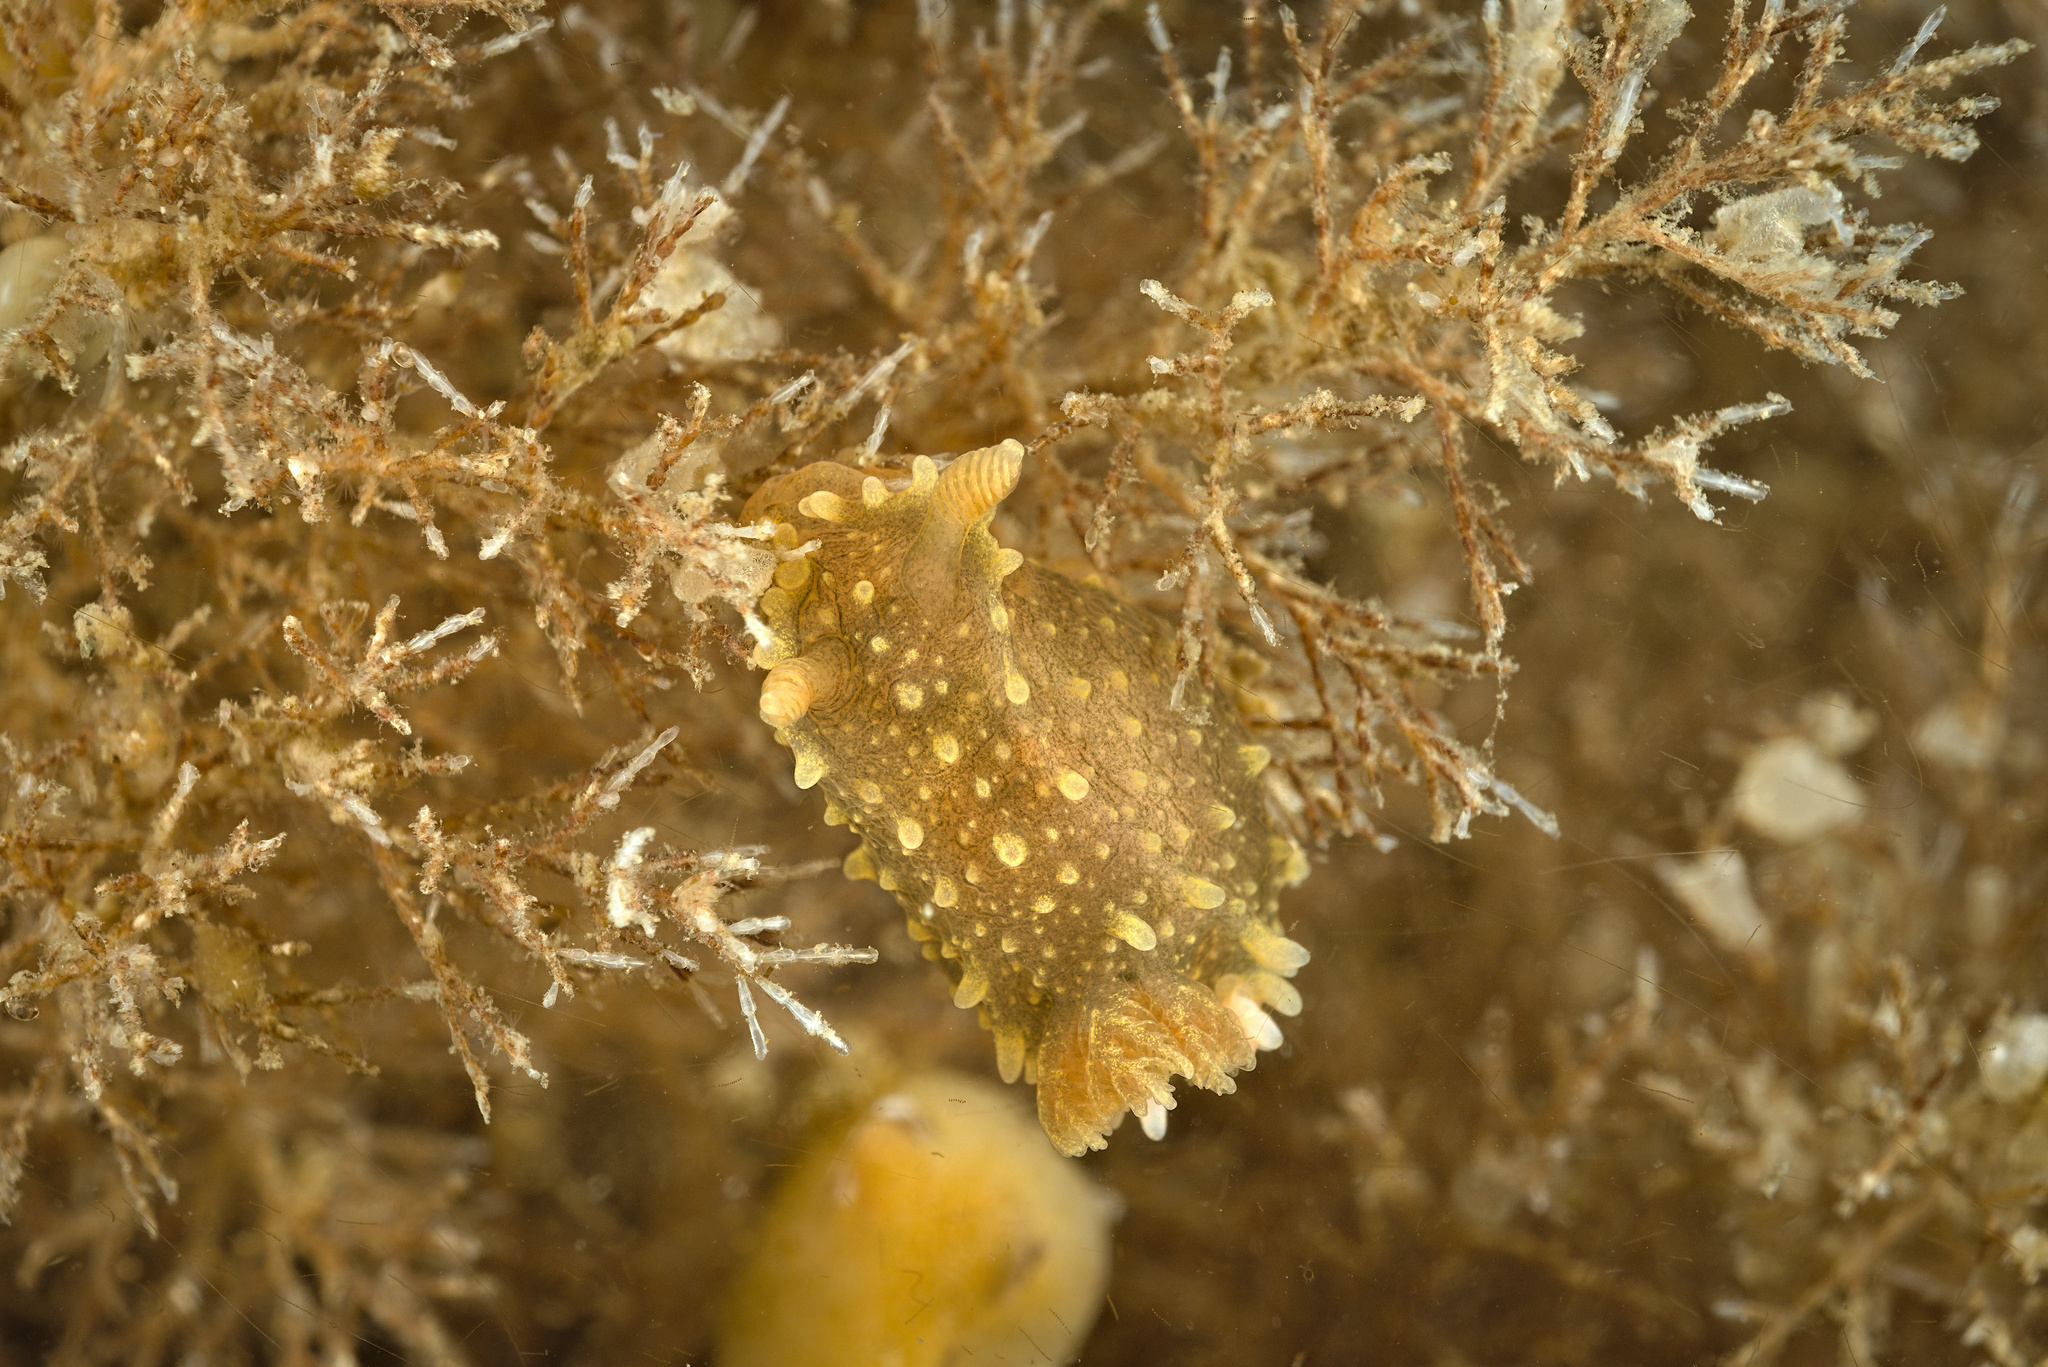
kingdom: Animalia
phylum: Mollusca
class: Gastropoda
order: Nudibranchia
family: Polyceridae
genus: Palio
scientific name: Palio dubia
